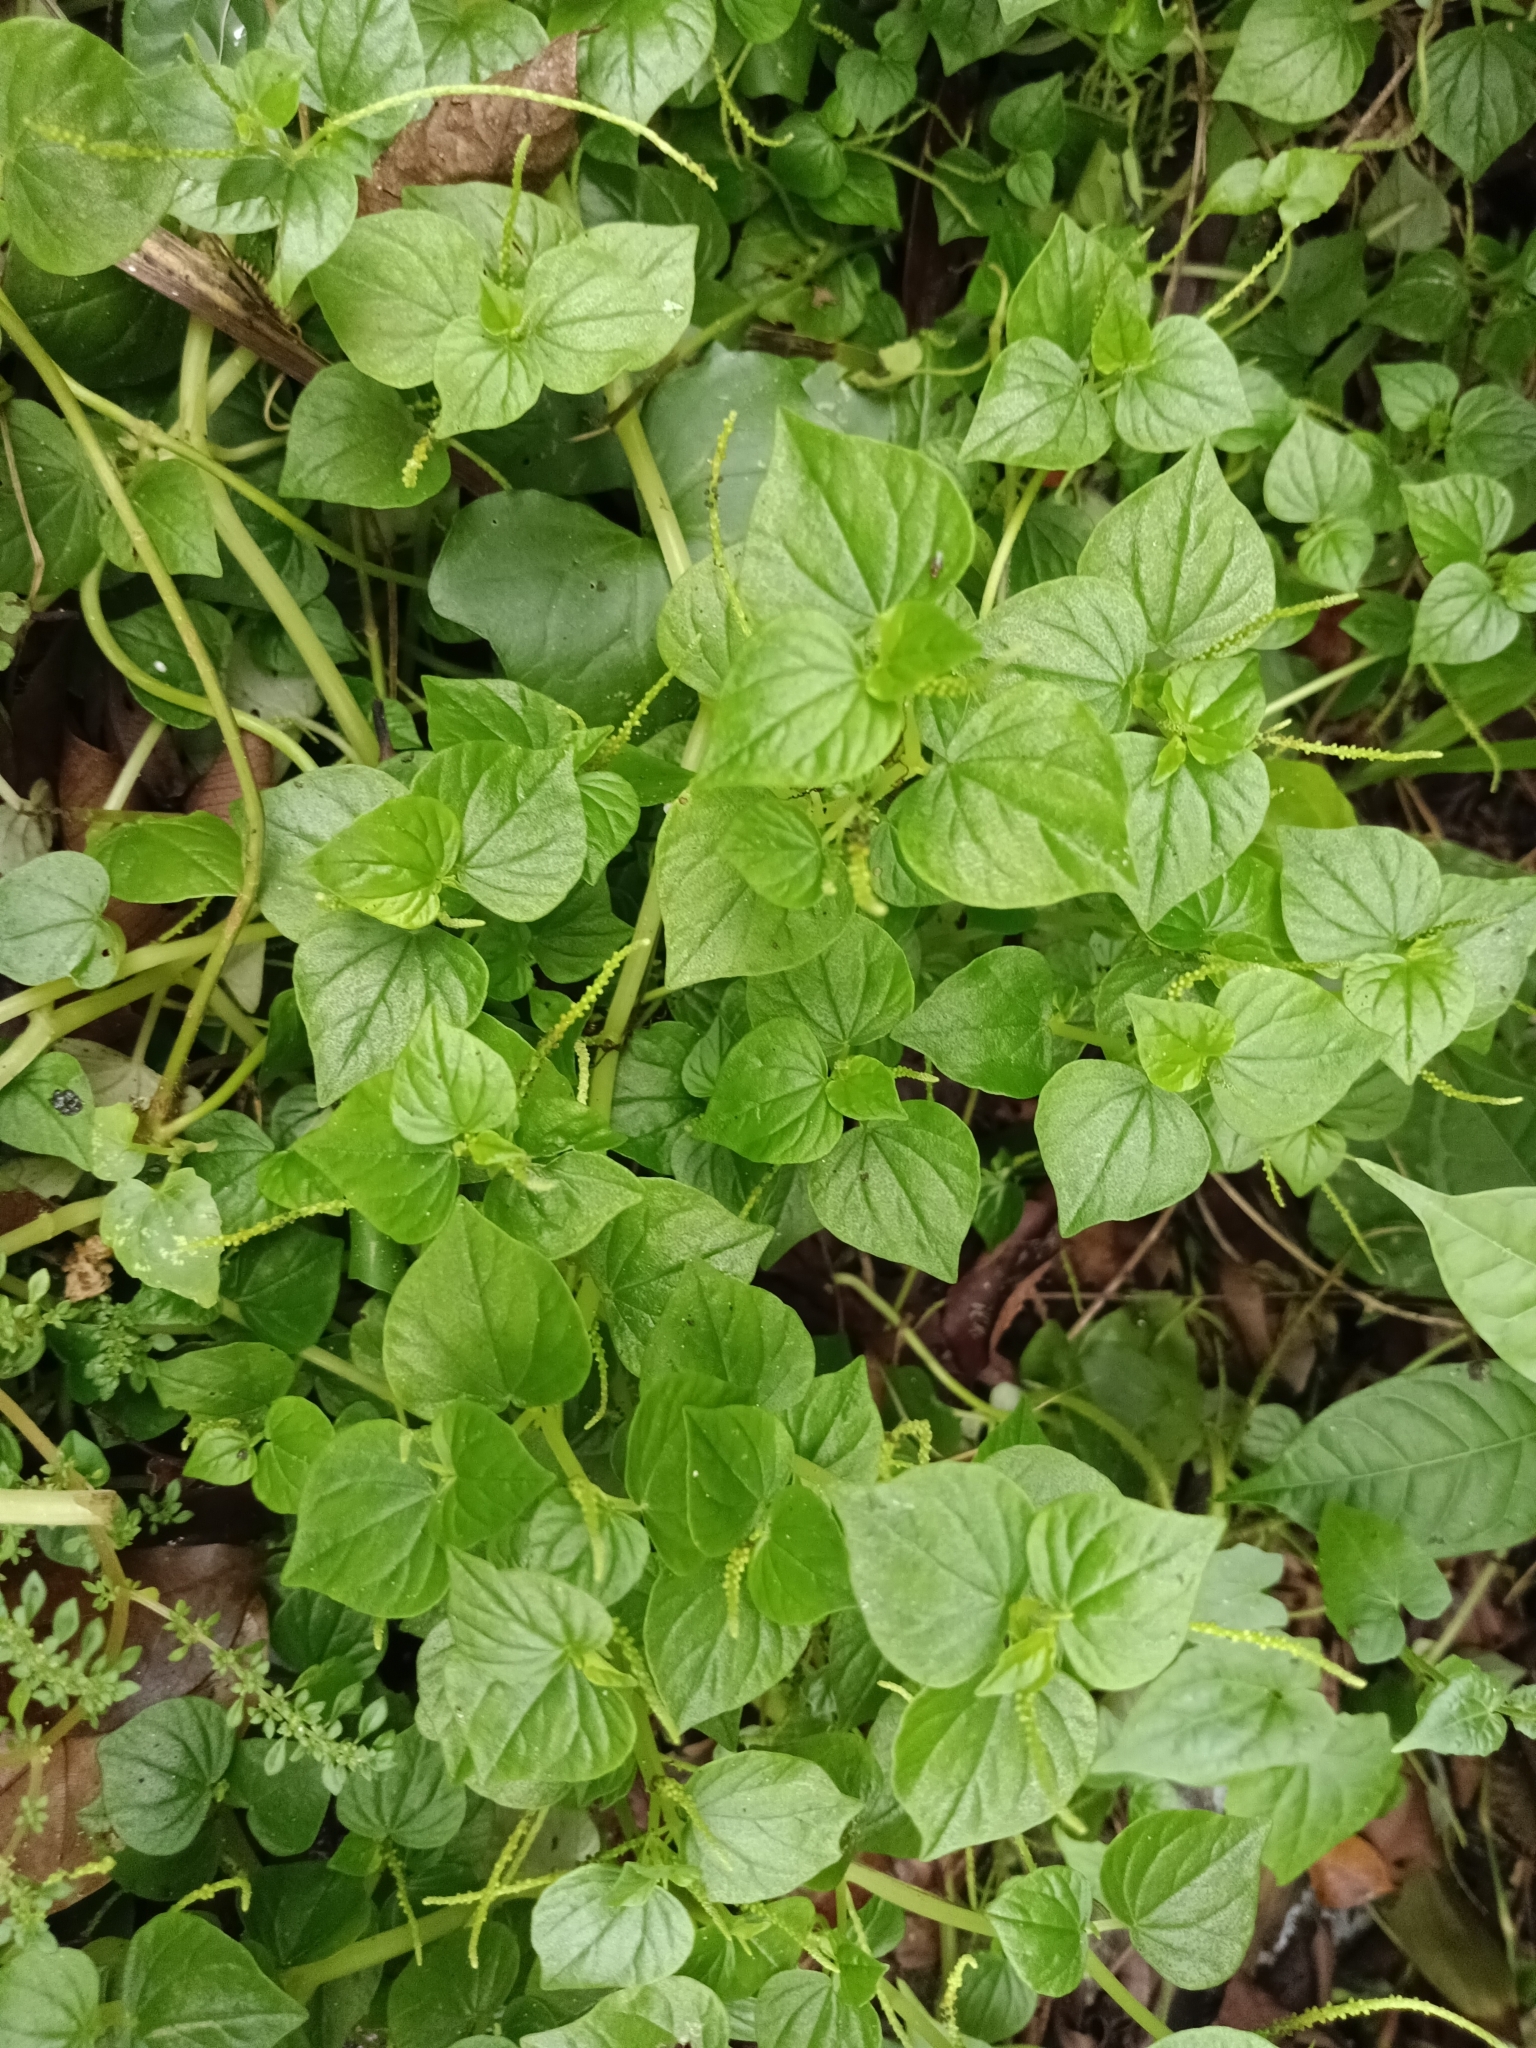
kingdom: Plantae
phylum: Tracheophyta
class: Magnoliopsida
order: Piperales
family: Piperaceae
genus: Peperomia
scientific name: Peperomia pellucida
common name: Man to man
